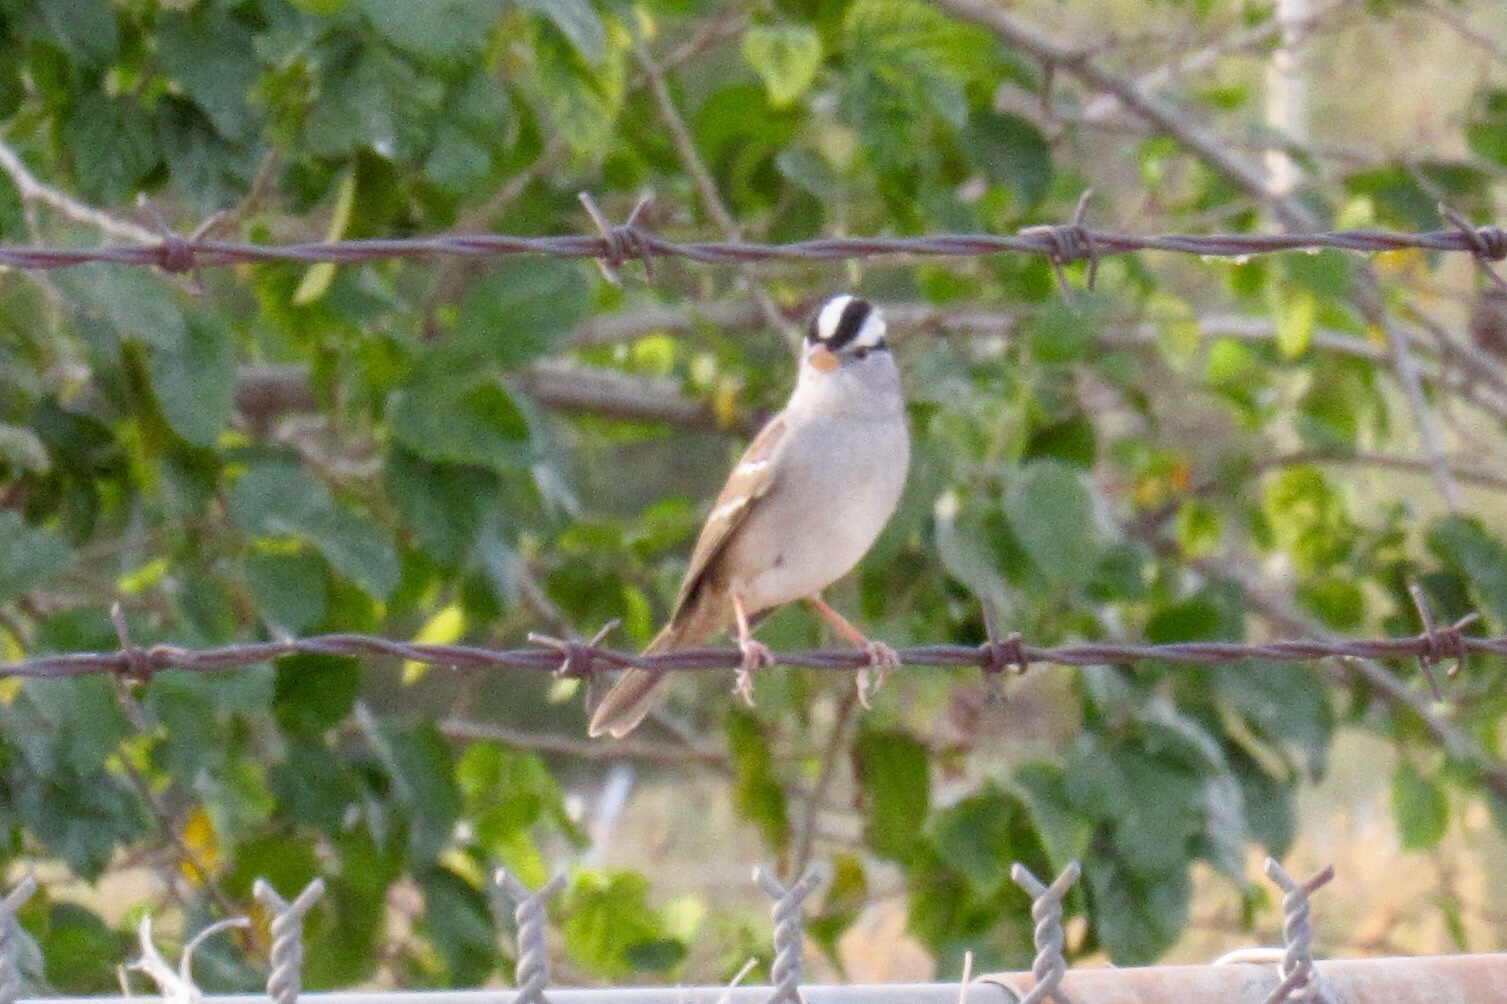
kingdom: Animalia
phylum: Chordata
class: Aves
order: Passeriformes
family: Passerellidae
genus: Zonotrichia
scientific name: Zonotrichia leucophrys
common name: White-crowned sparrow
